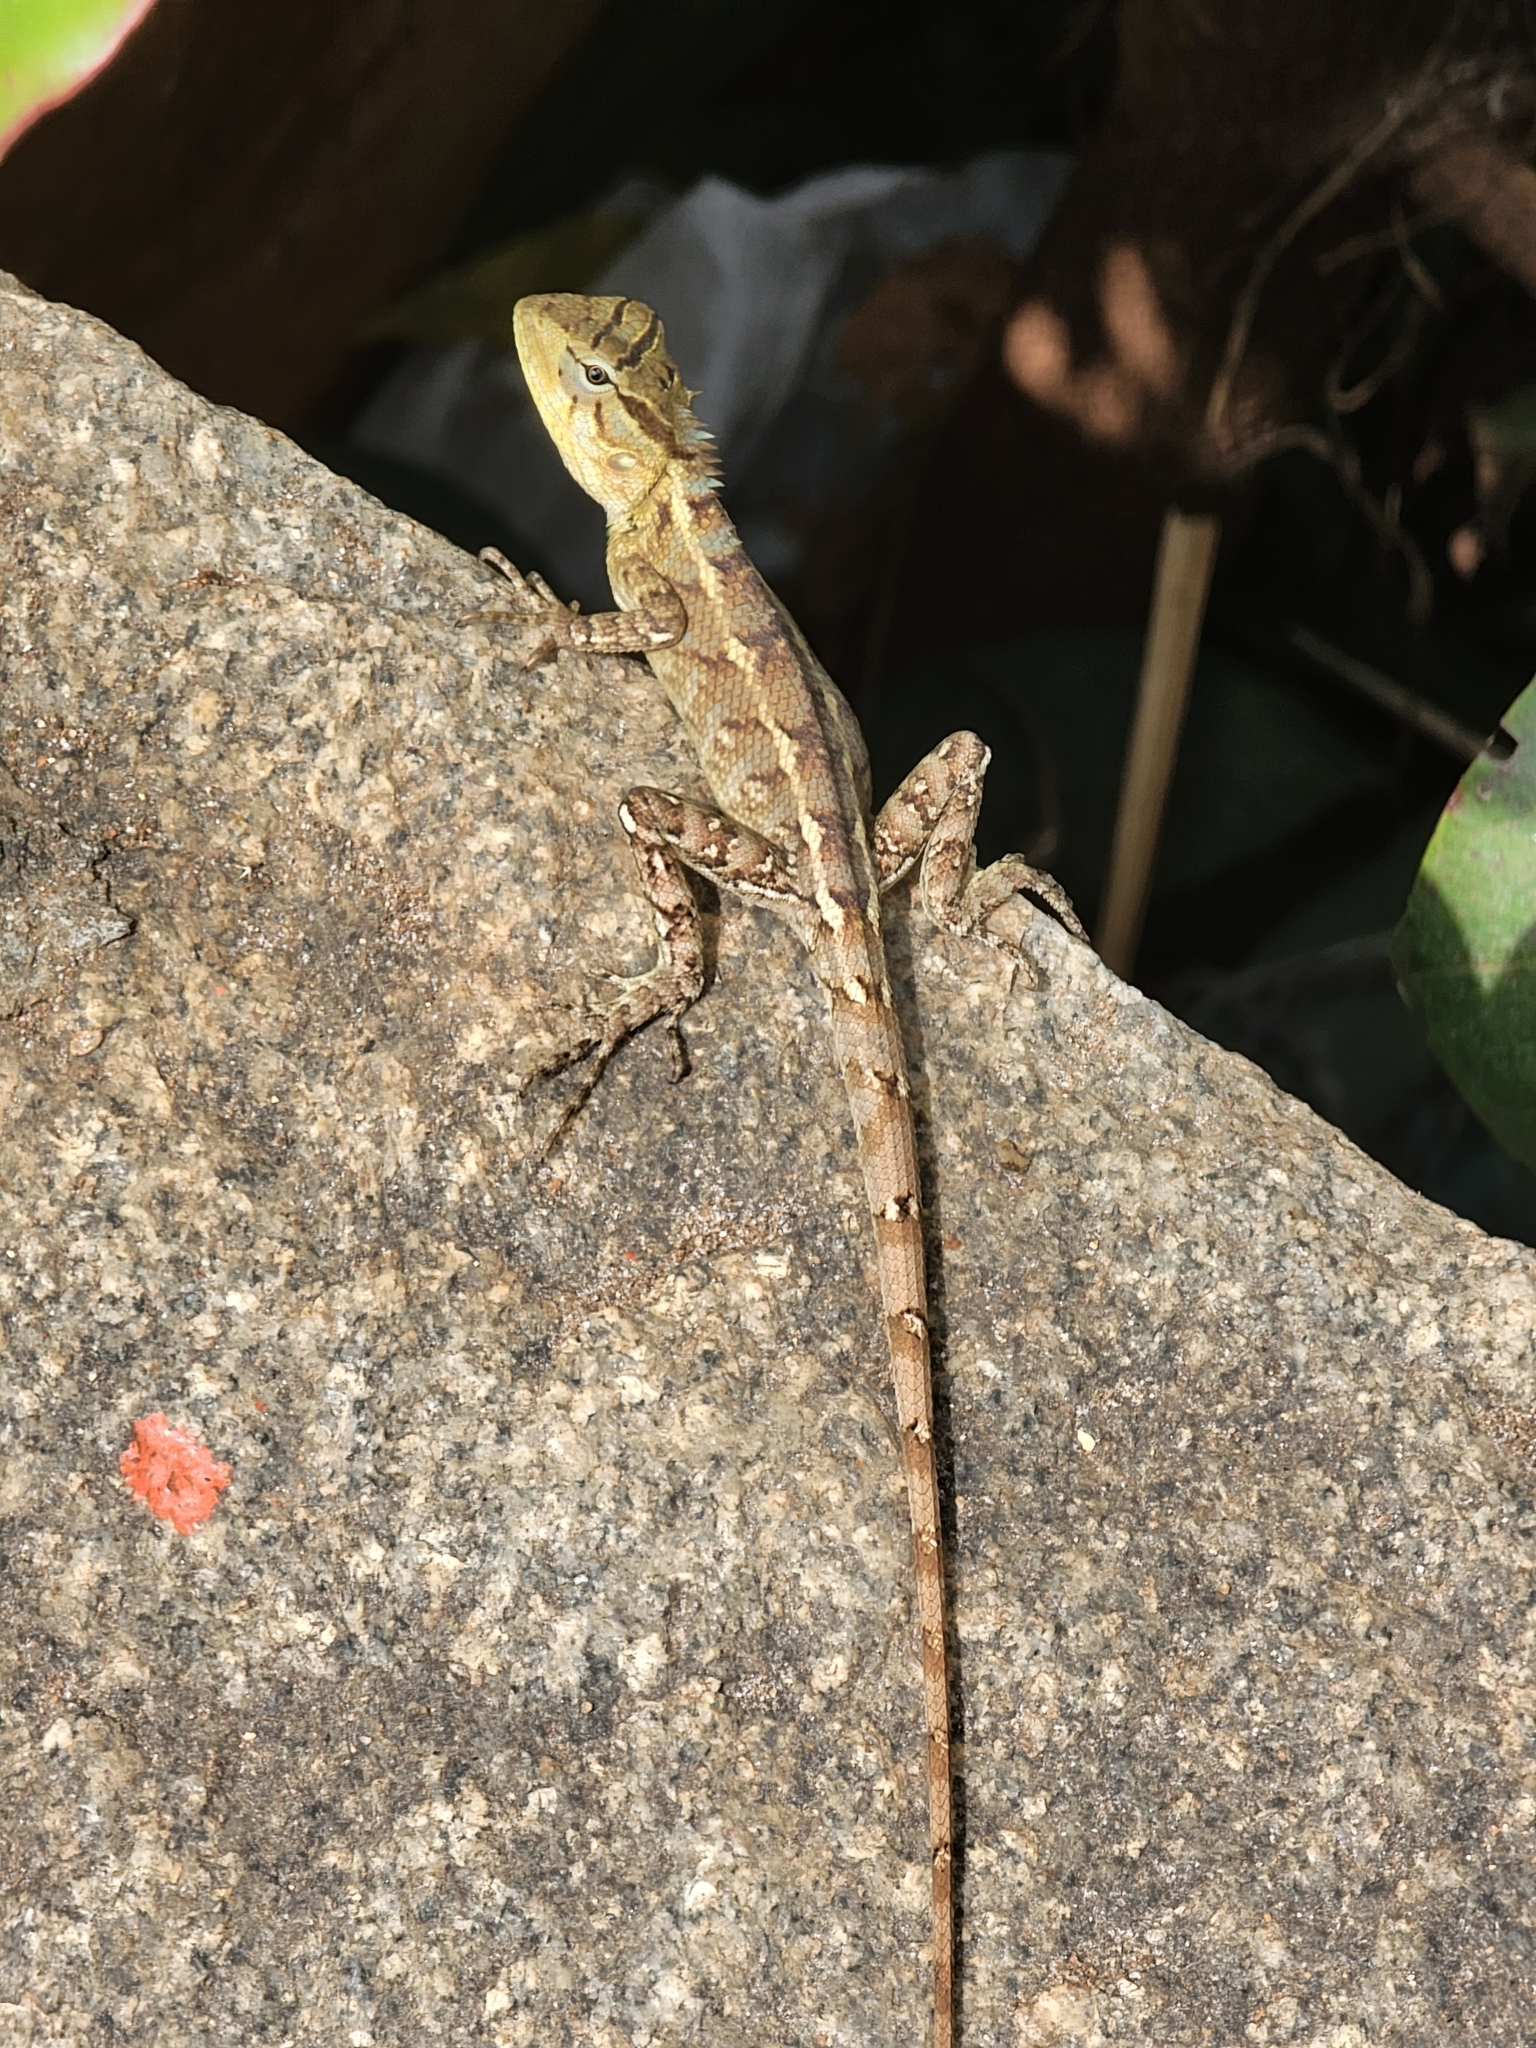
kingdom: Animalia
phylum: Chordata
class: Squamata
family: Agamidae
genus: Calotes
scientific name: Calotes versicolor
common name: Oriental garden lizard
